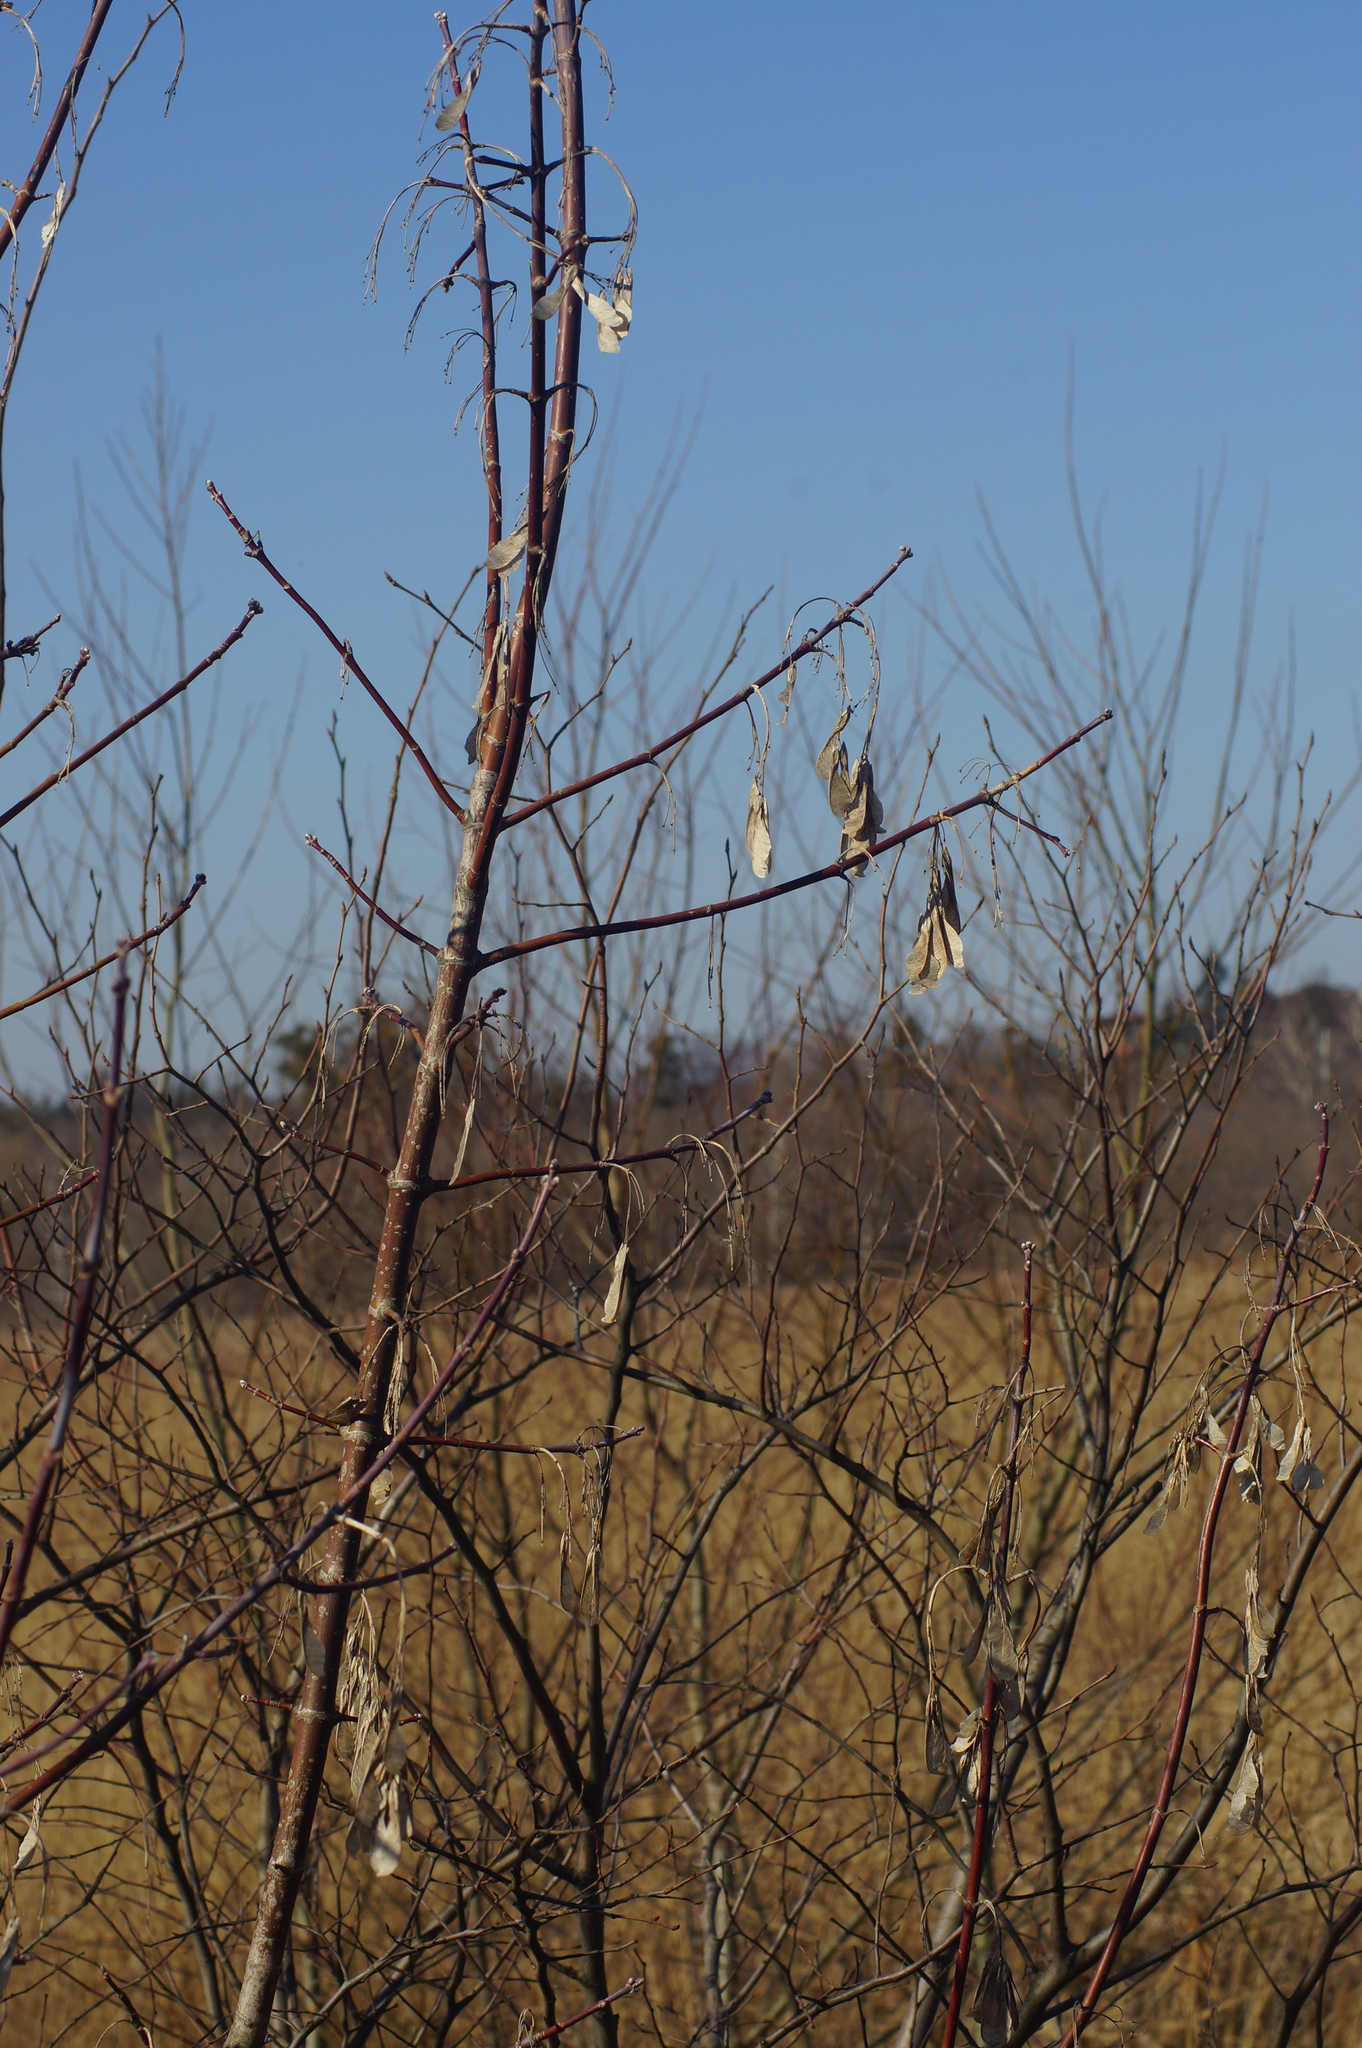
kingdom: Plantae
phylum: Tracheophyta
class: Magnoliopsida
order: Sapindales
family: Sapindaceae
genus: Acer
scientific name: Acer negundo
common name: Ashleaf maple
